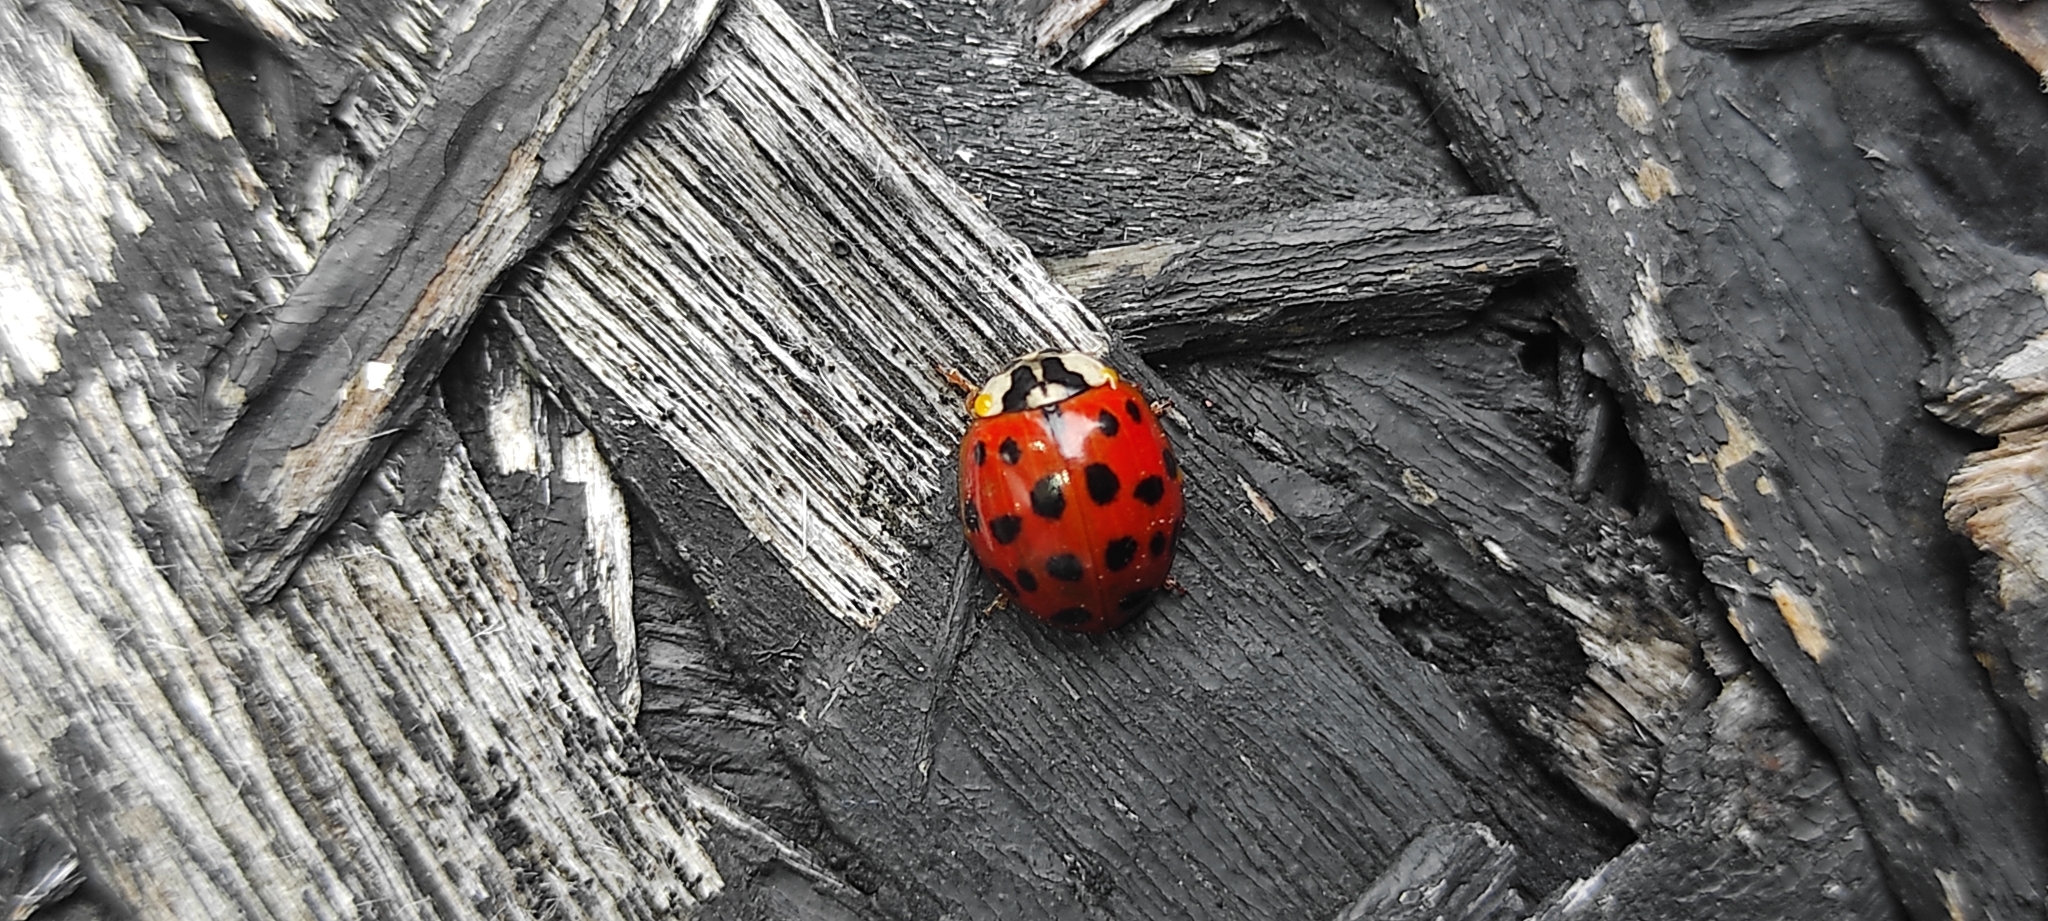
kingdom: Animalia
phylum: Arthropoda
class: Insecta
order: Coleoptera
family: Coccinellidae
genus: Harmonia
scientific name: Harmonia axyridis
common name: Harlequin ladybird
